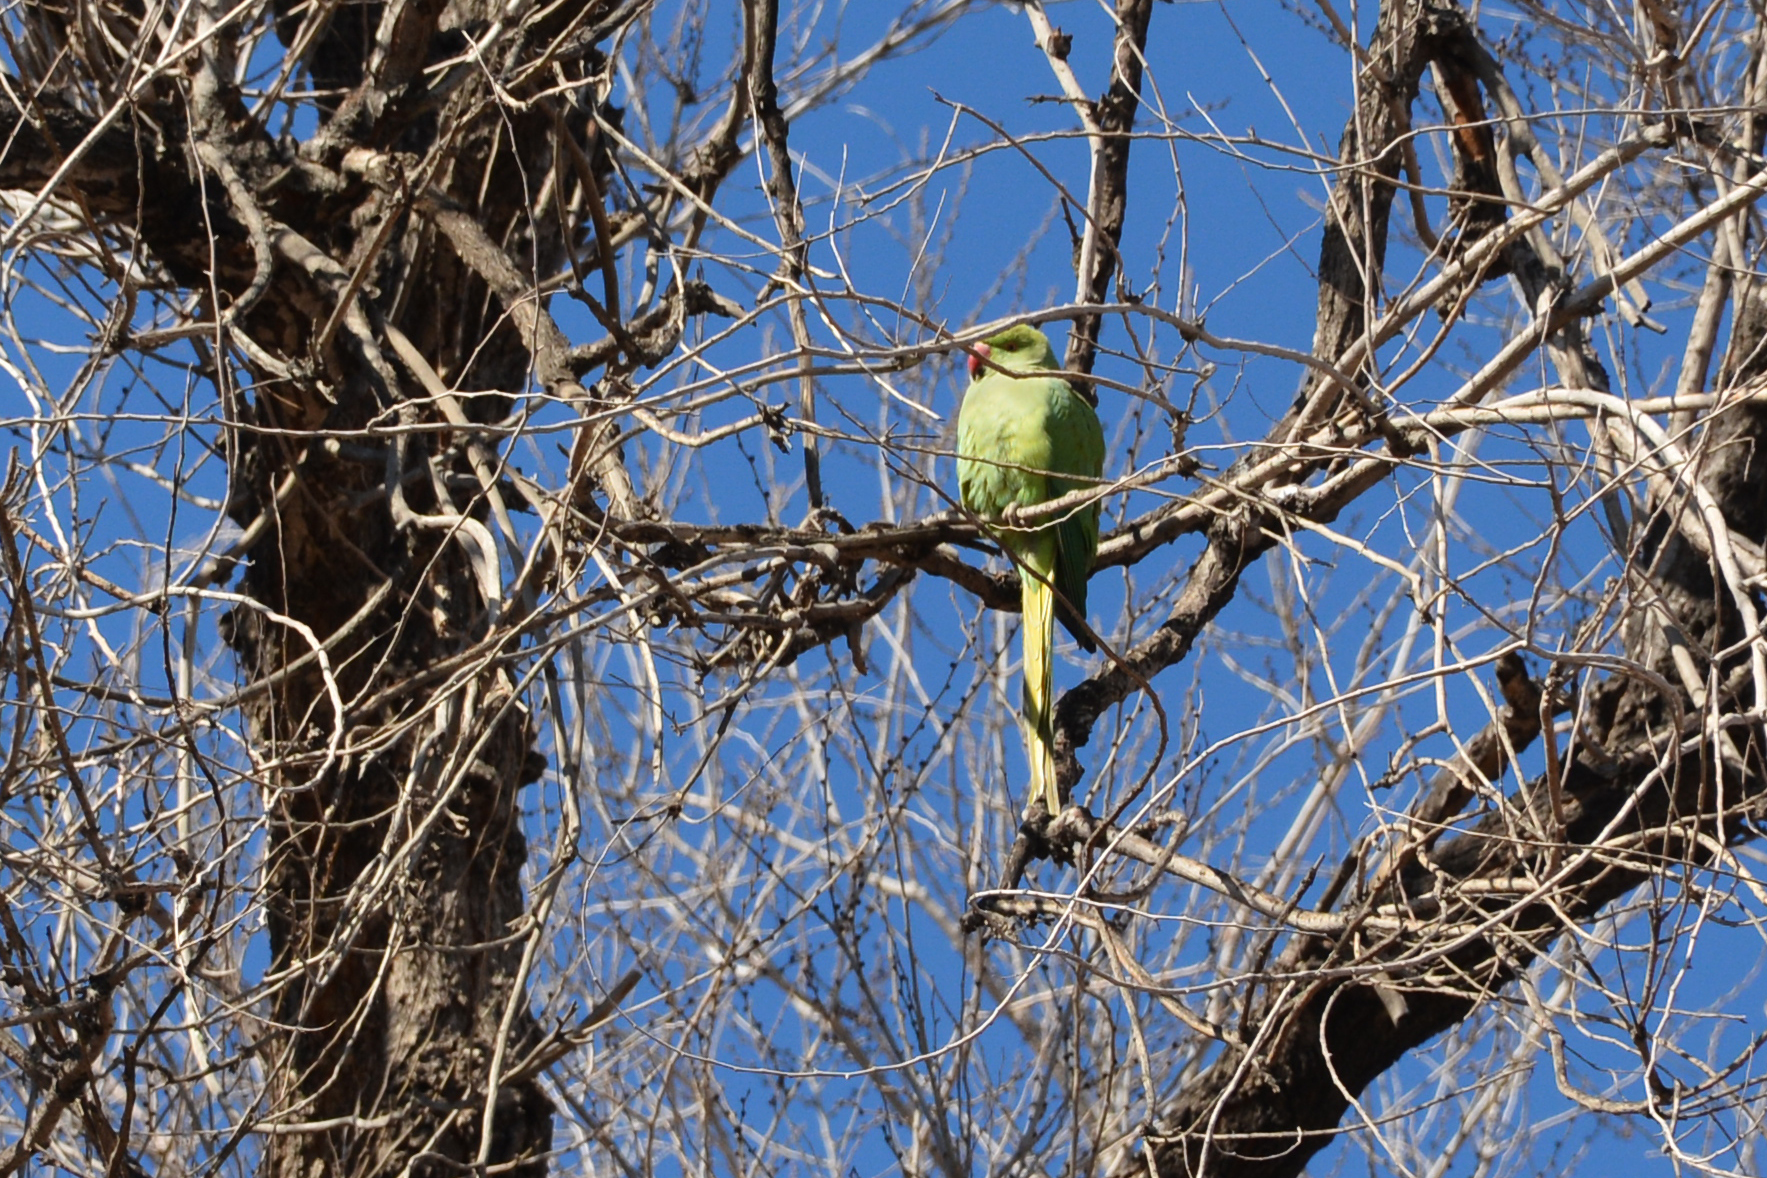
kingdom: Animalia
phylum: Chordata
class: Aves
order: Psittaciformes
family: Psittacidae
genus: Psittacula
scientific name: Psittacula krameri
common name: Rose-ringed parakeet
